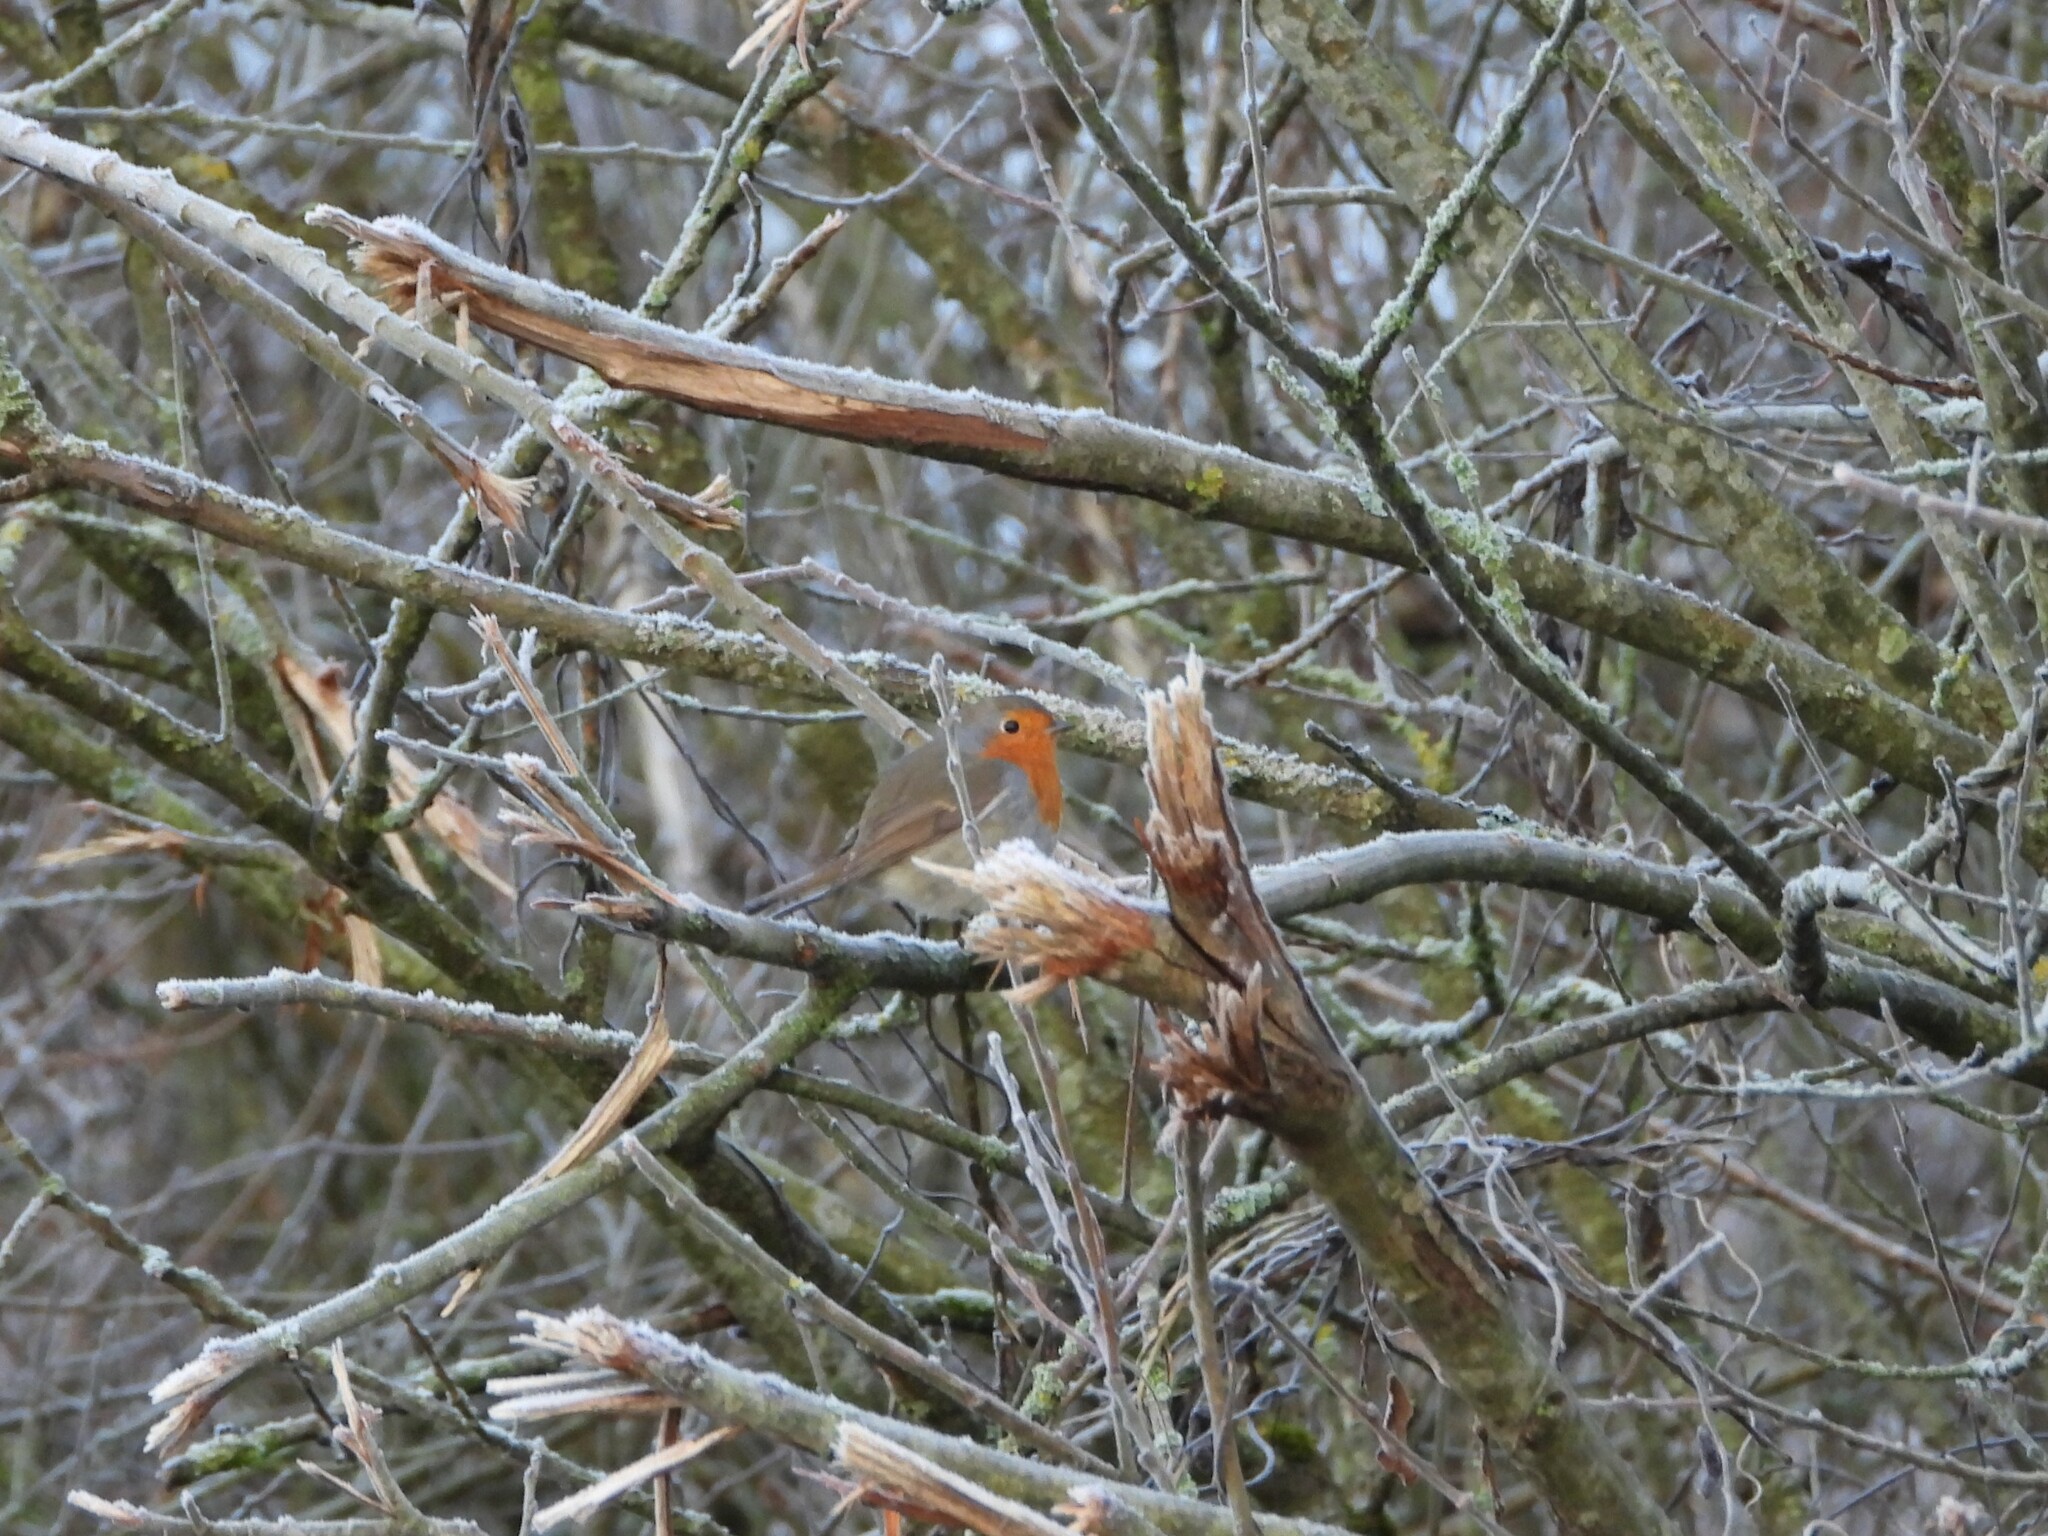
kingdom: Animalia
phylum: Chordata
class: Aves
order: Passeriformes
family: Muscicapidae
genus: Erithacus
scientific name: Erithacus rubecula
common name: European robin
